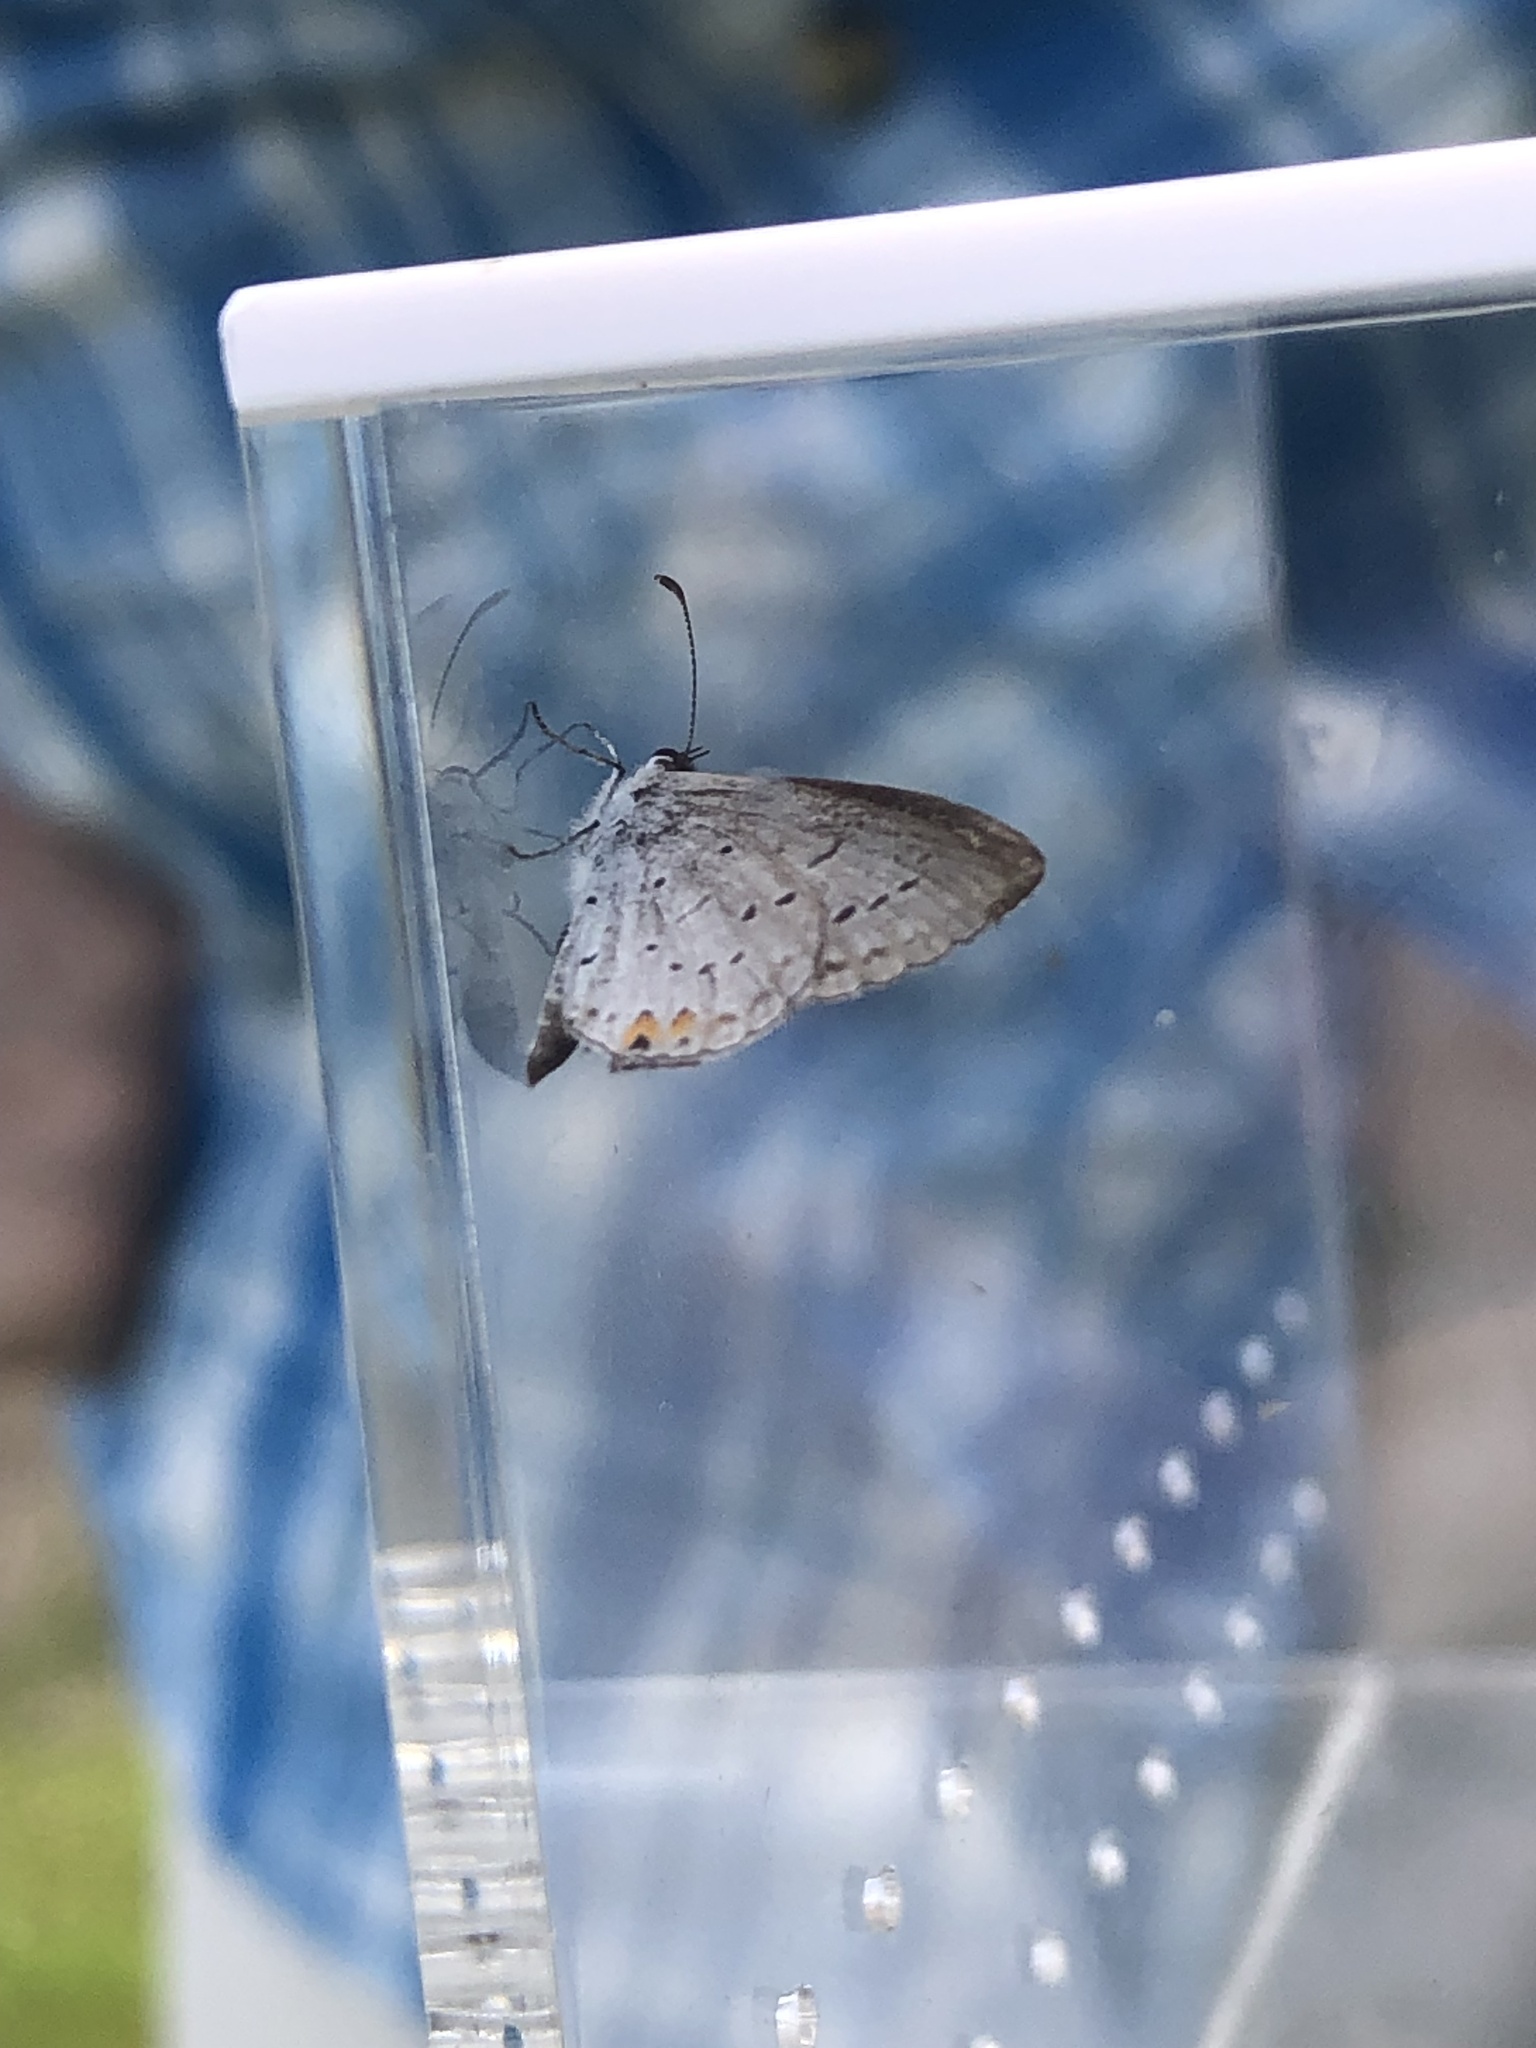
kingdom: Animalia
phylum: Arthropoda
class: Insecta
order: Lepidoptera
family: Lycaenidae
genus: Elkalyce
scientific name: Elkalyce comyntas
